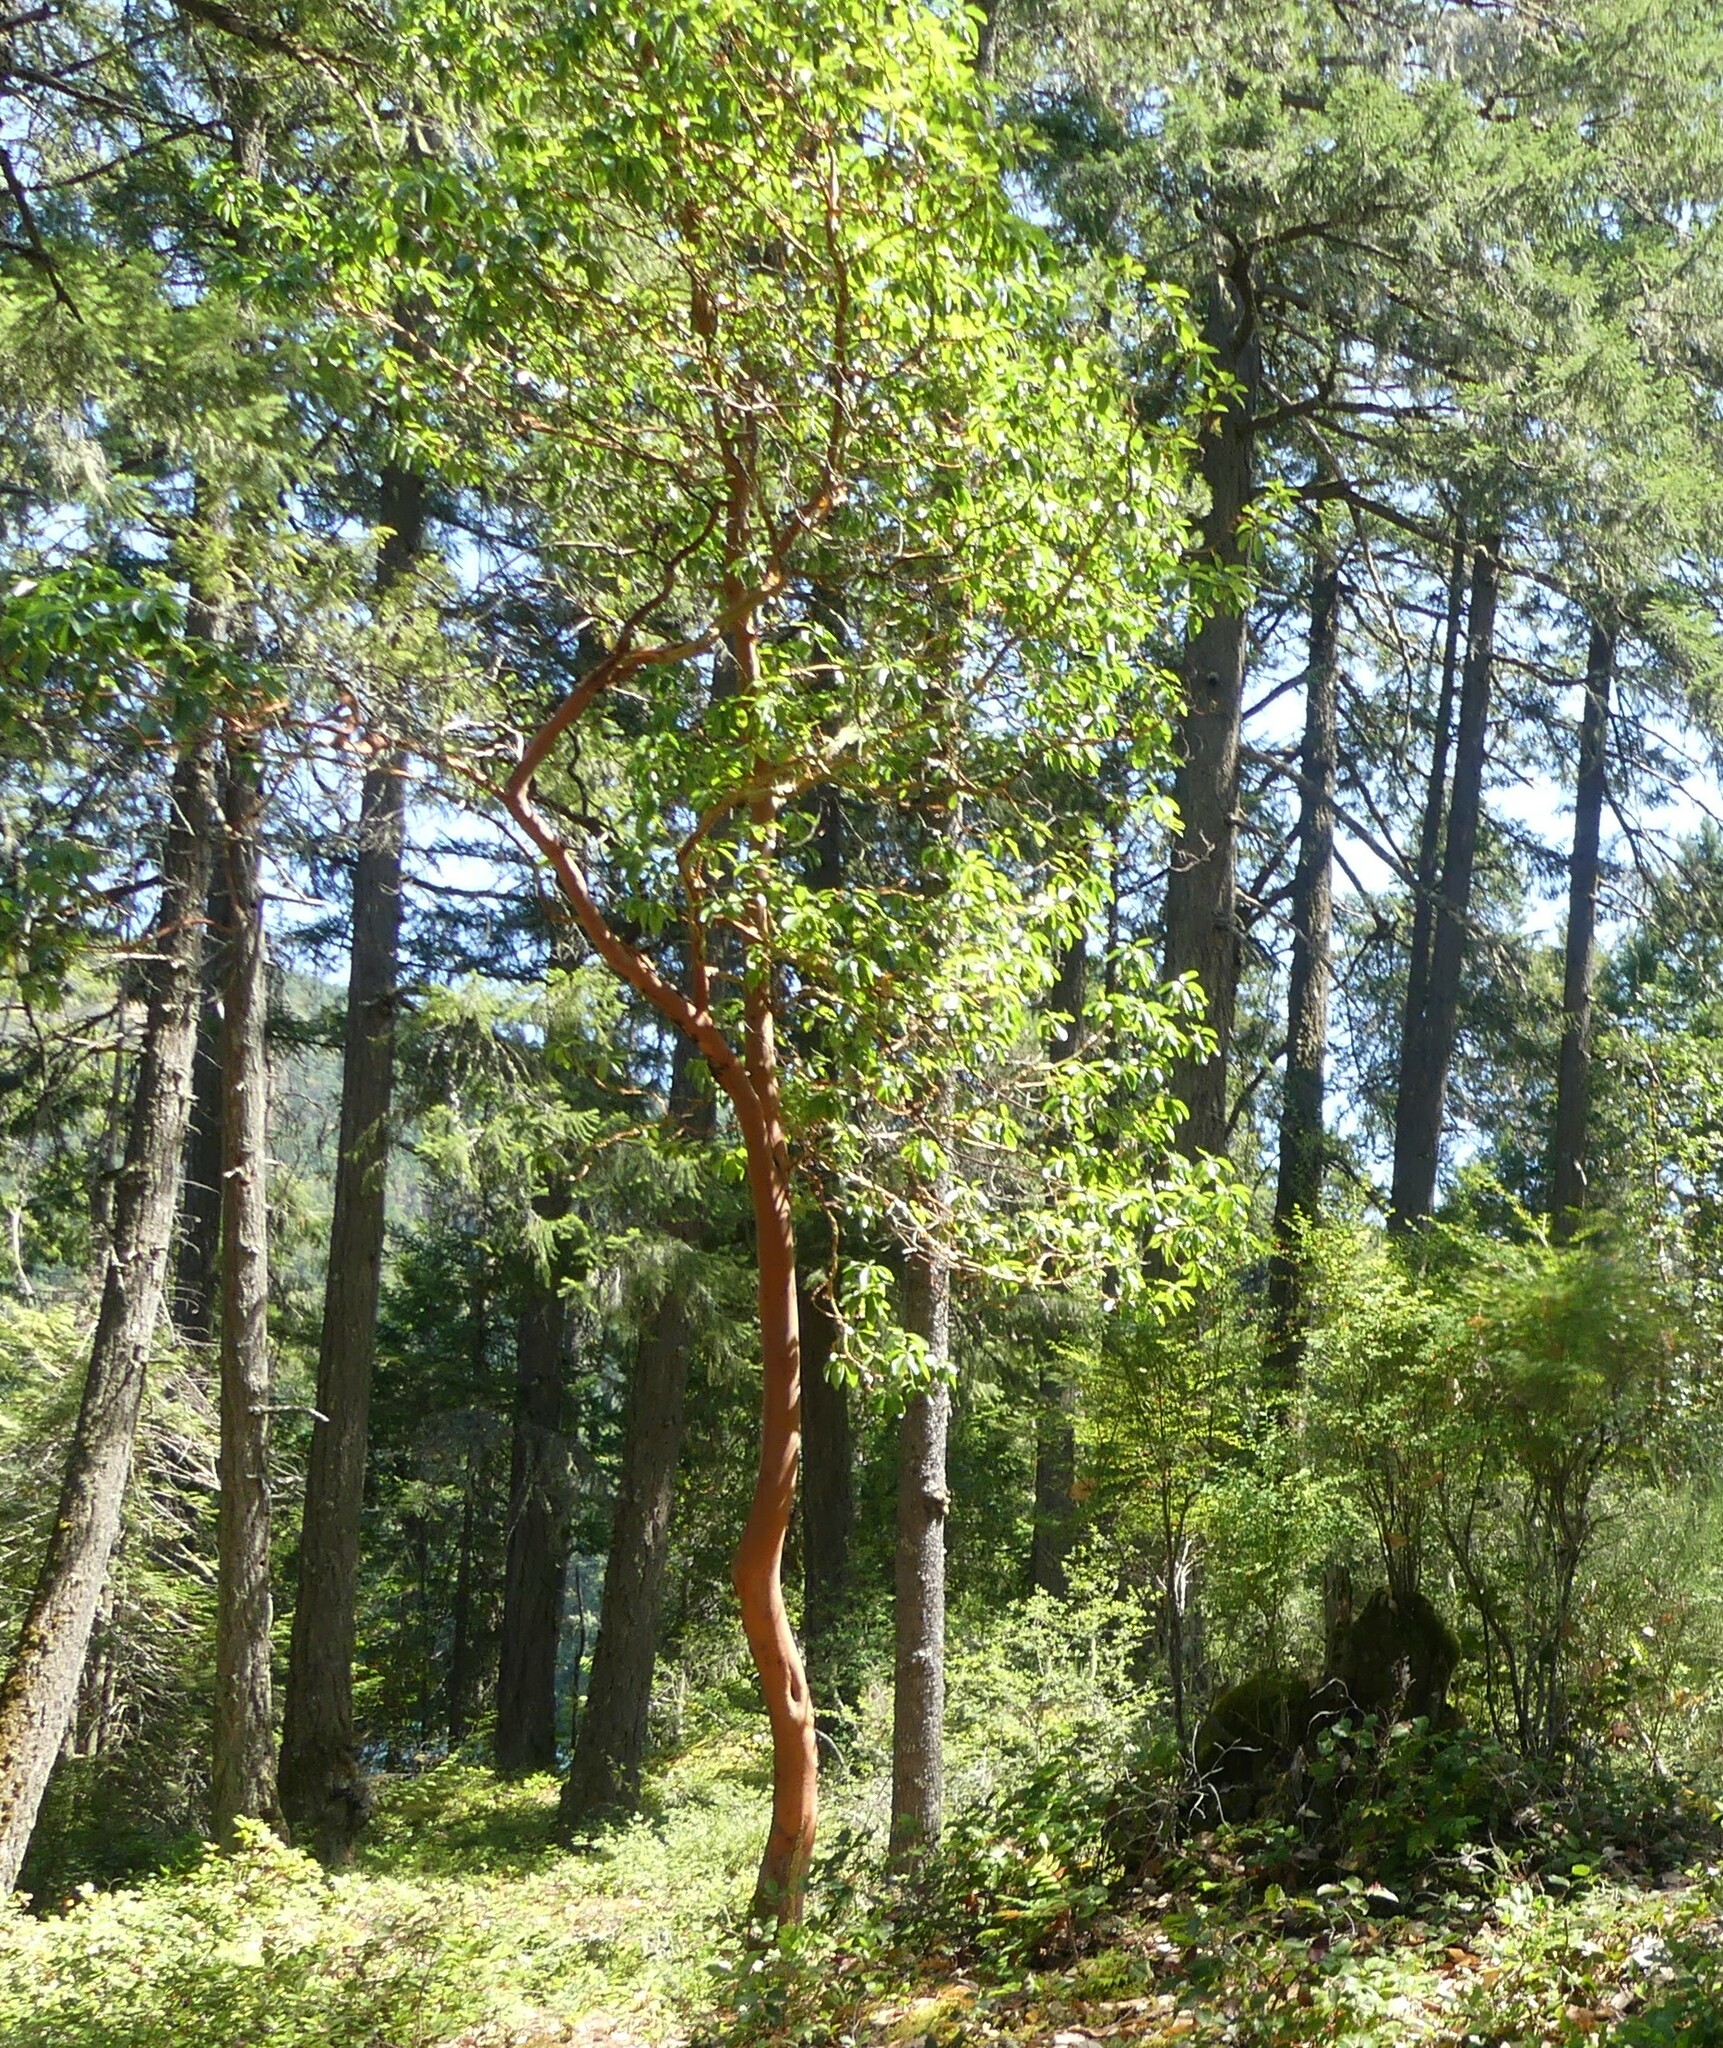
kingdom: Plantae
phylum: Tracheophyta
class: Magnoliopsida
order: Ericales
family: Ericaceae
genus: Arbutus
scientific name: Arbutus menziesii
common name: Pacific madrone
